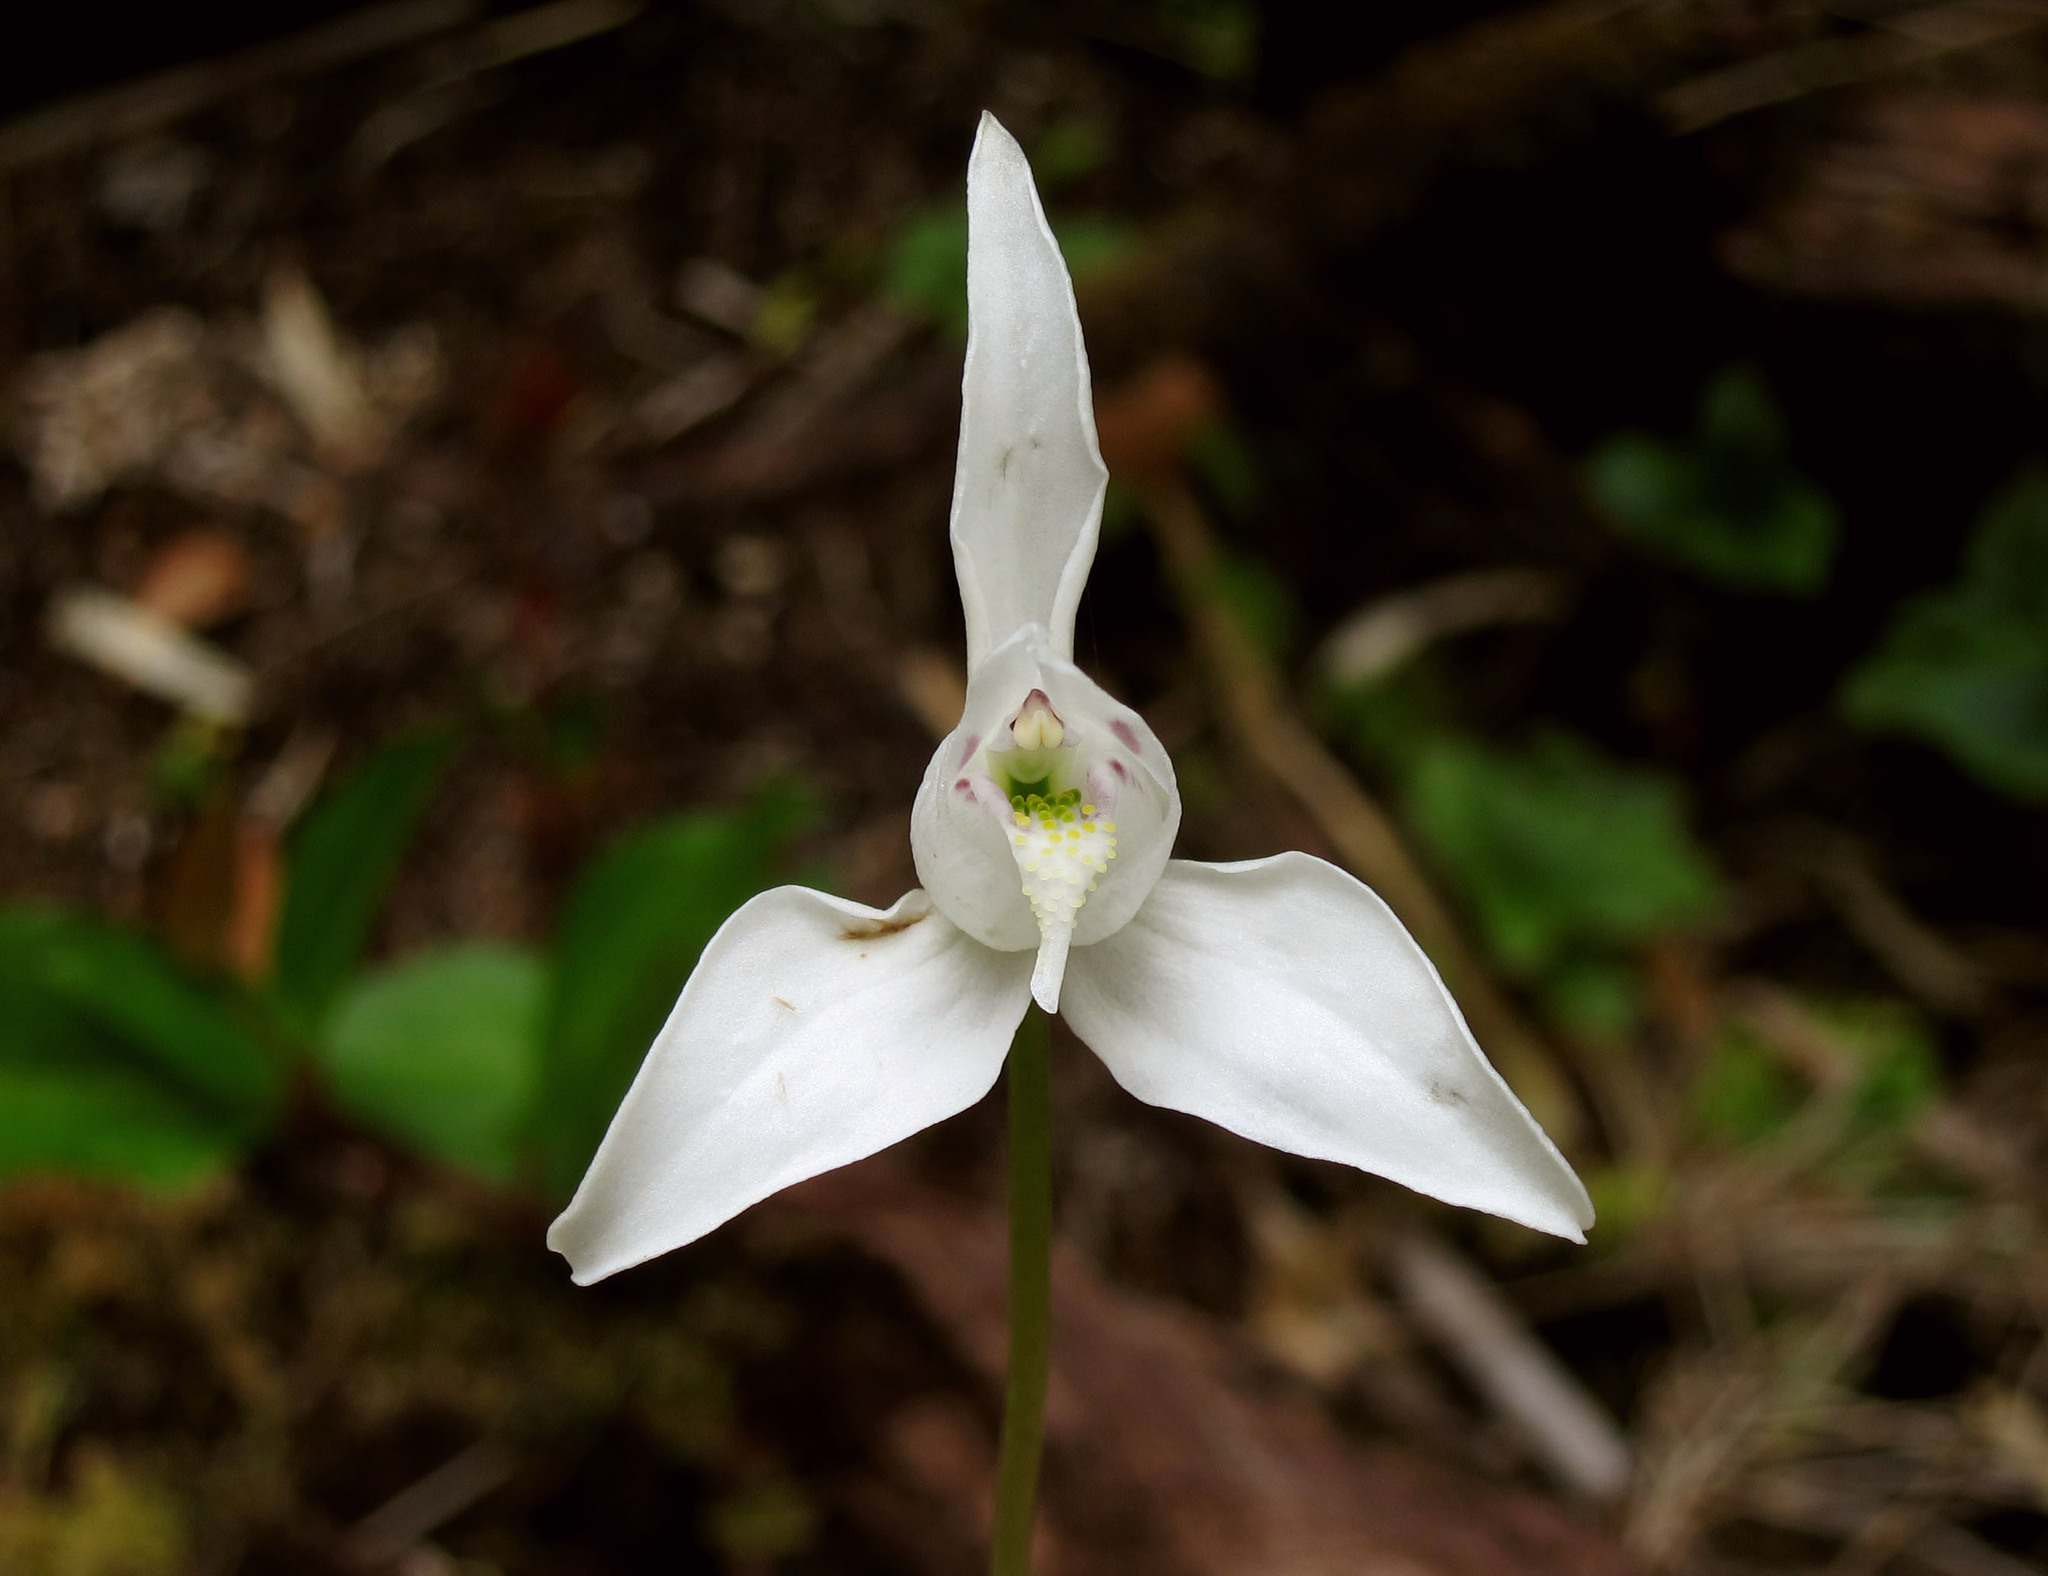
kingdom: Plantae
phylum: Tracheophyta
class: Liliopsida
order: Asparagales
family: Orchidaceae
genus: Codonorchis
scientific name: Codonorchis lessonii
